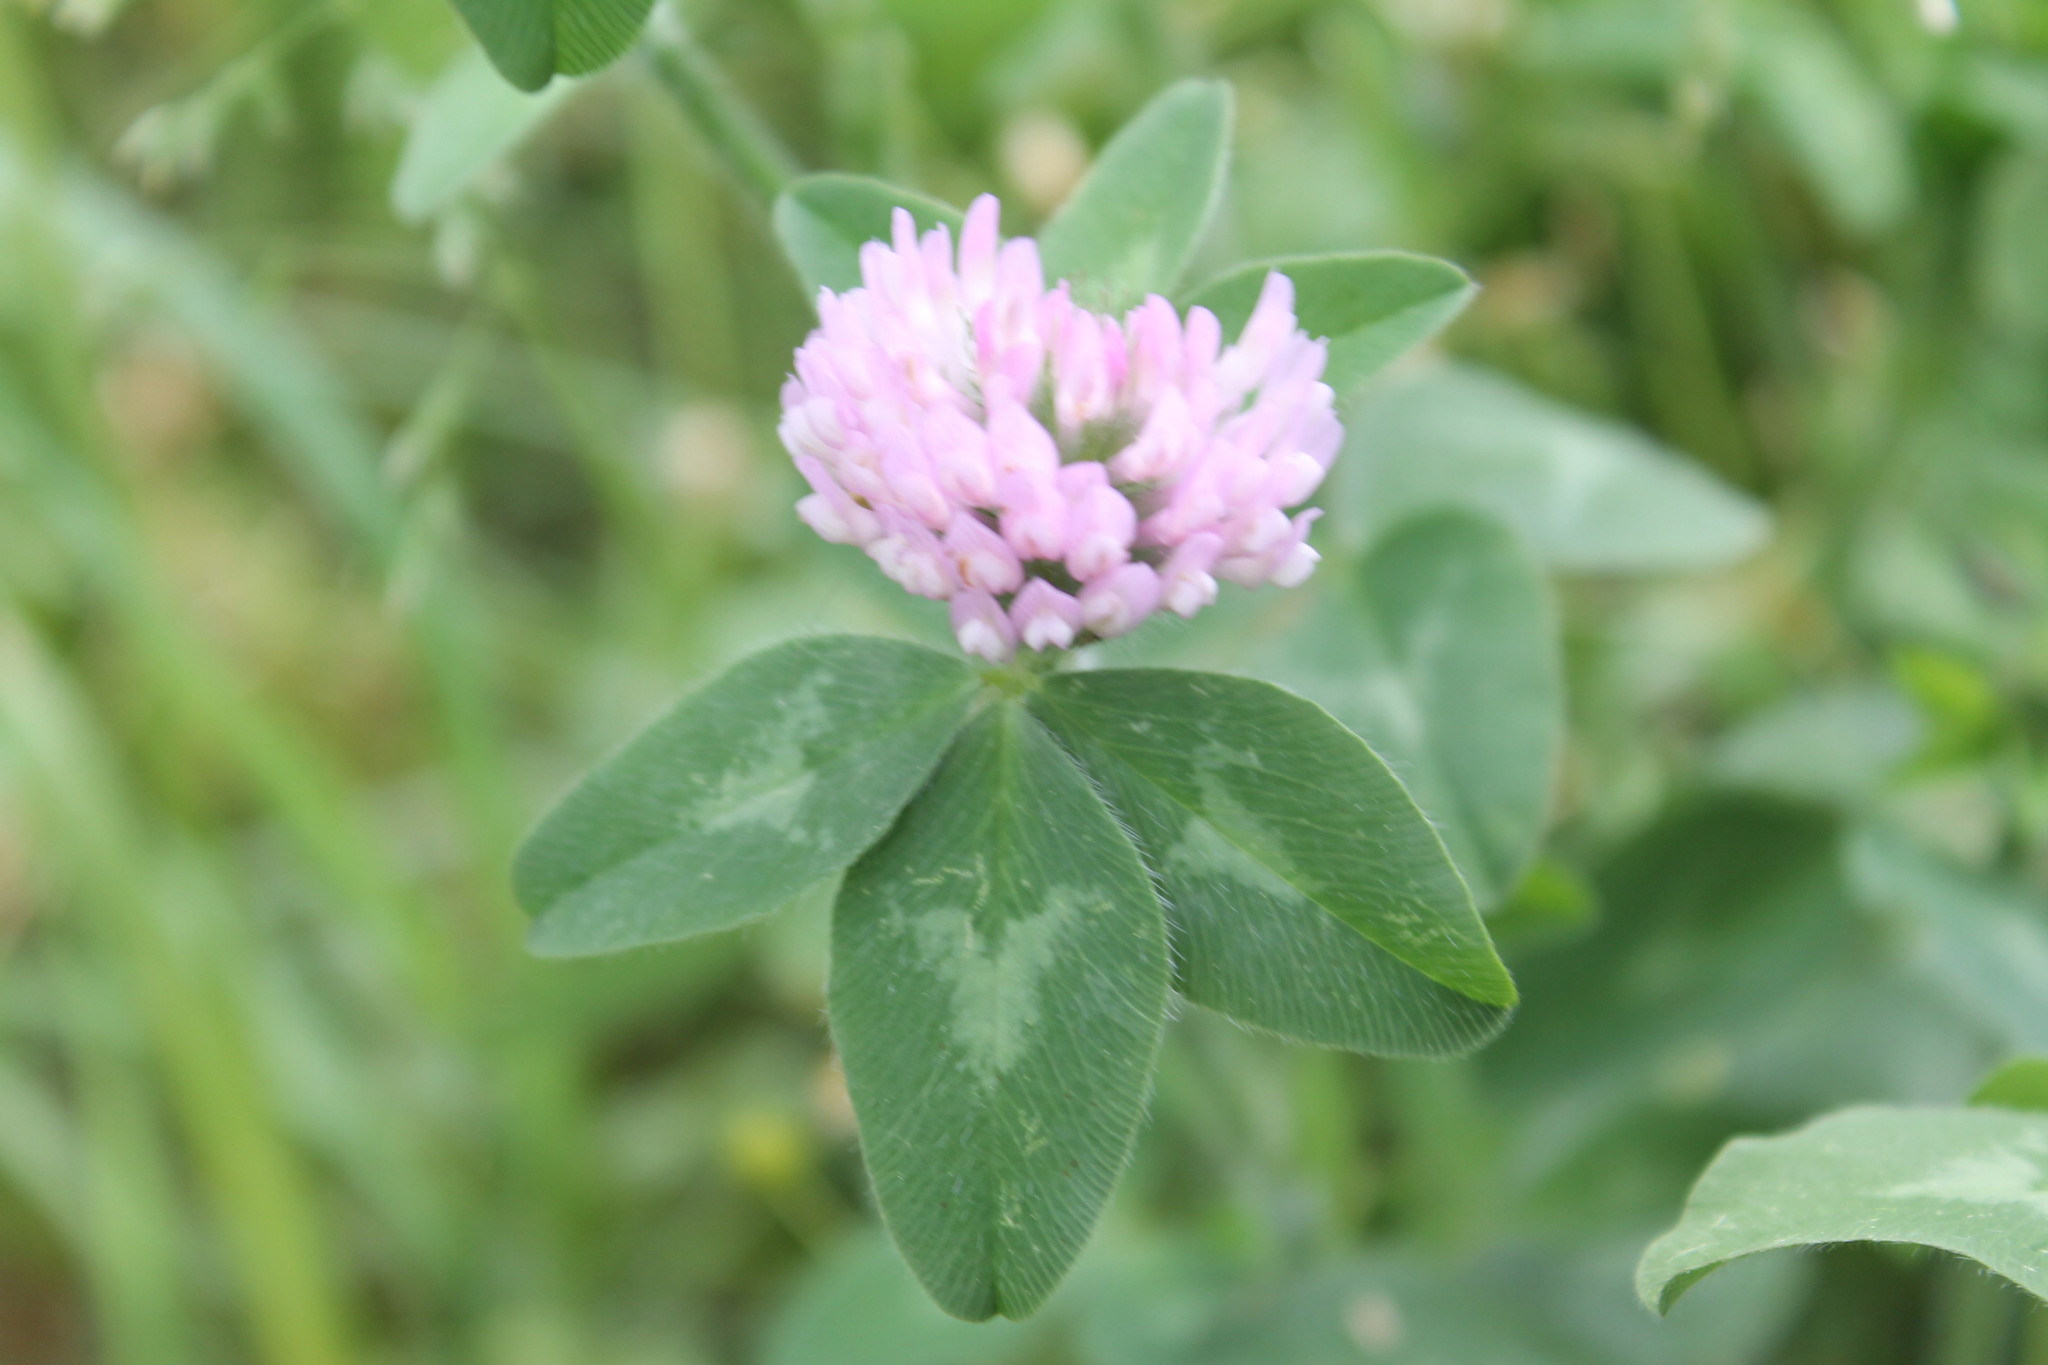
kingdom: Plantae
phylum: Tracheophyta
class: Magnoliopsida
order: Fabales
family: Fabaceae
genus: Trifolium
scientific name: Trifolium pratense
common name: Red clover
